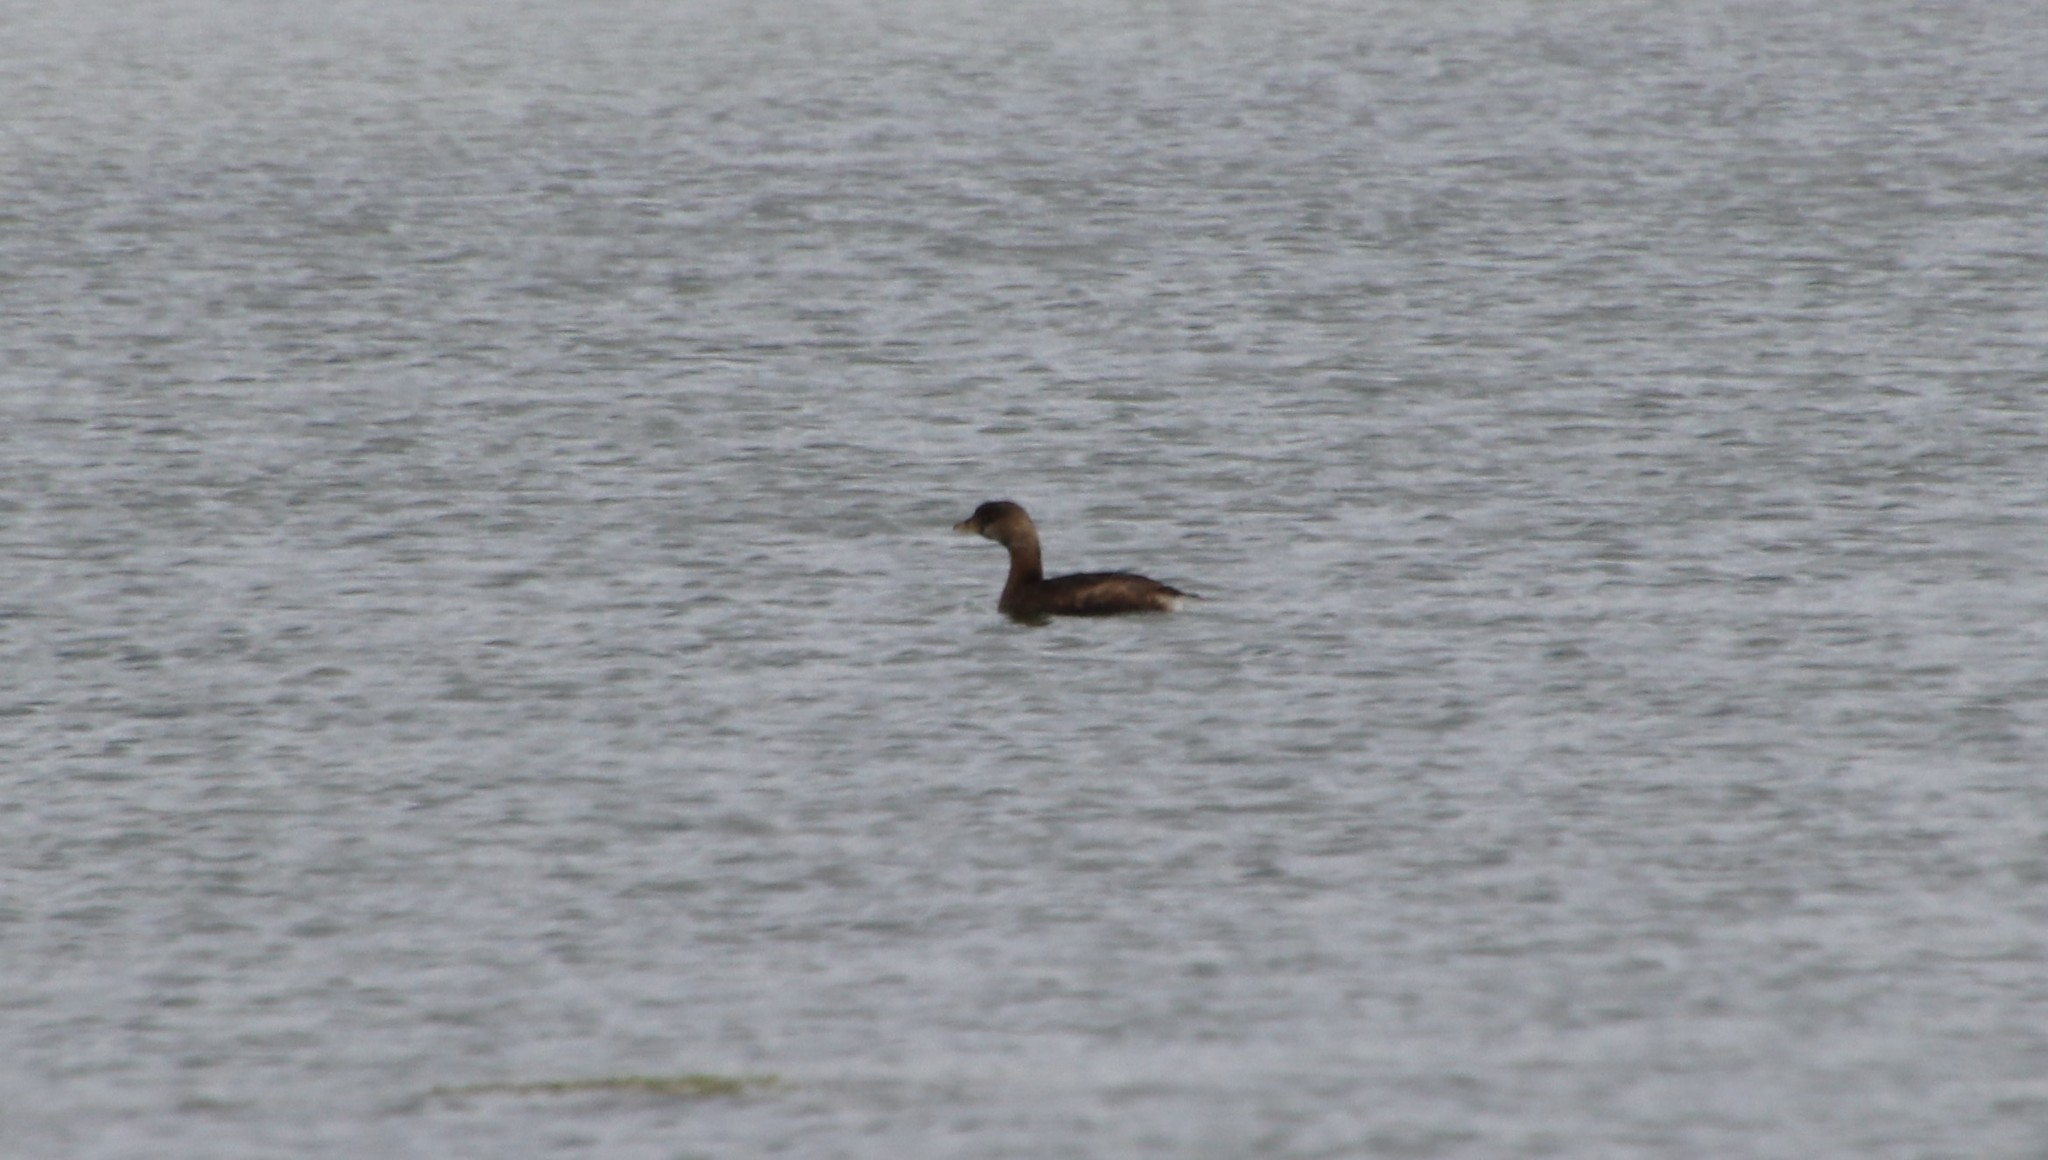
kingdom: Animalia
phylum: Chordata
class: Aves
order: Podicipediformes
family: Podicipedidae
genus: Podilymbus
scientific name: Podilymbus podiceps
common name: Pied-billed grebe
